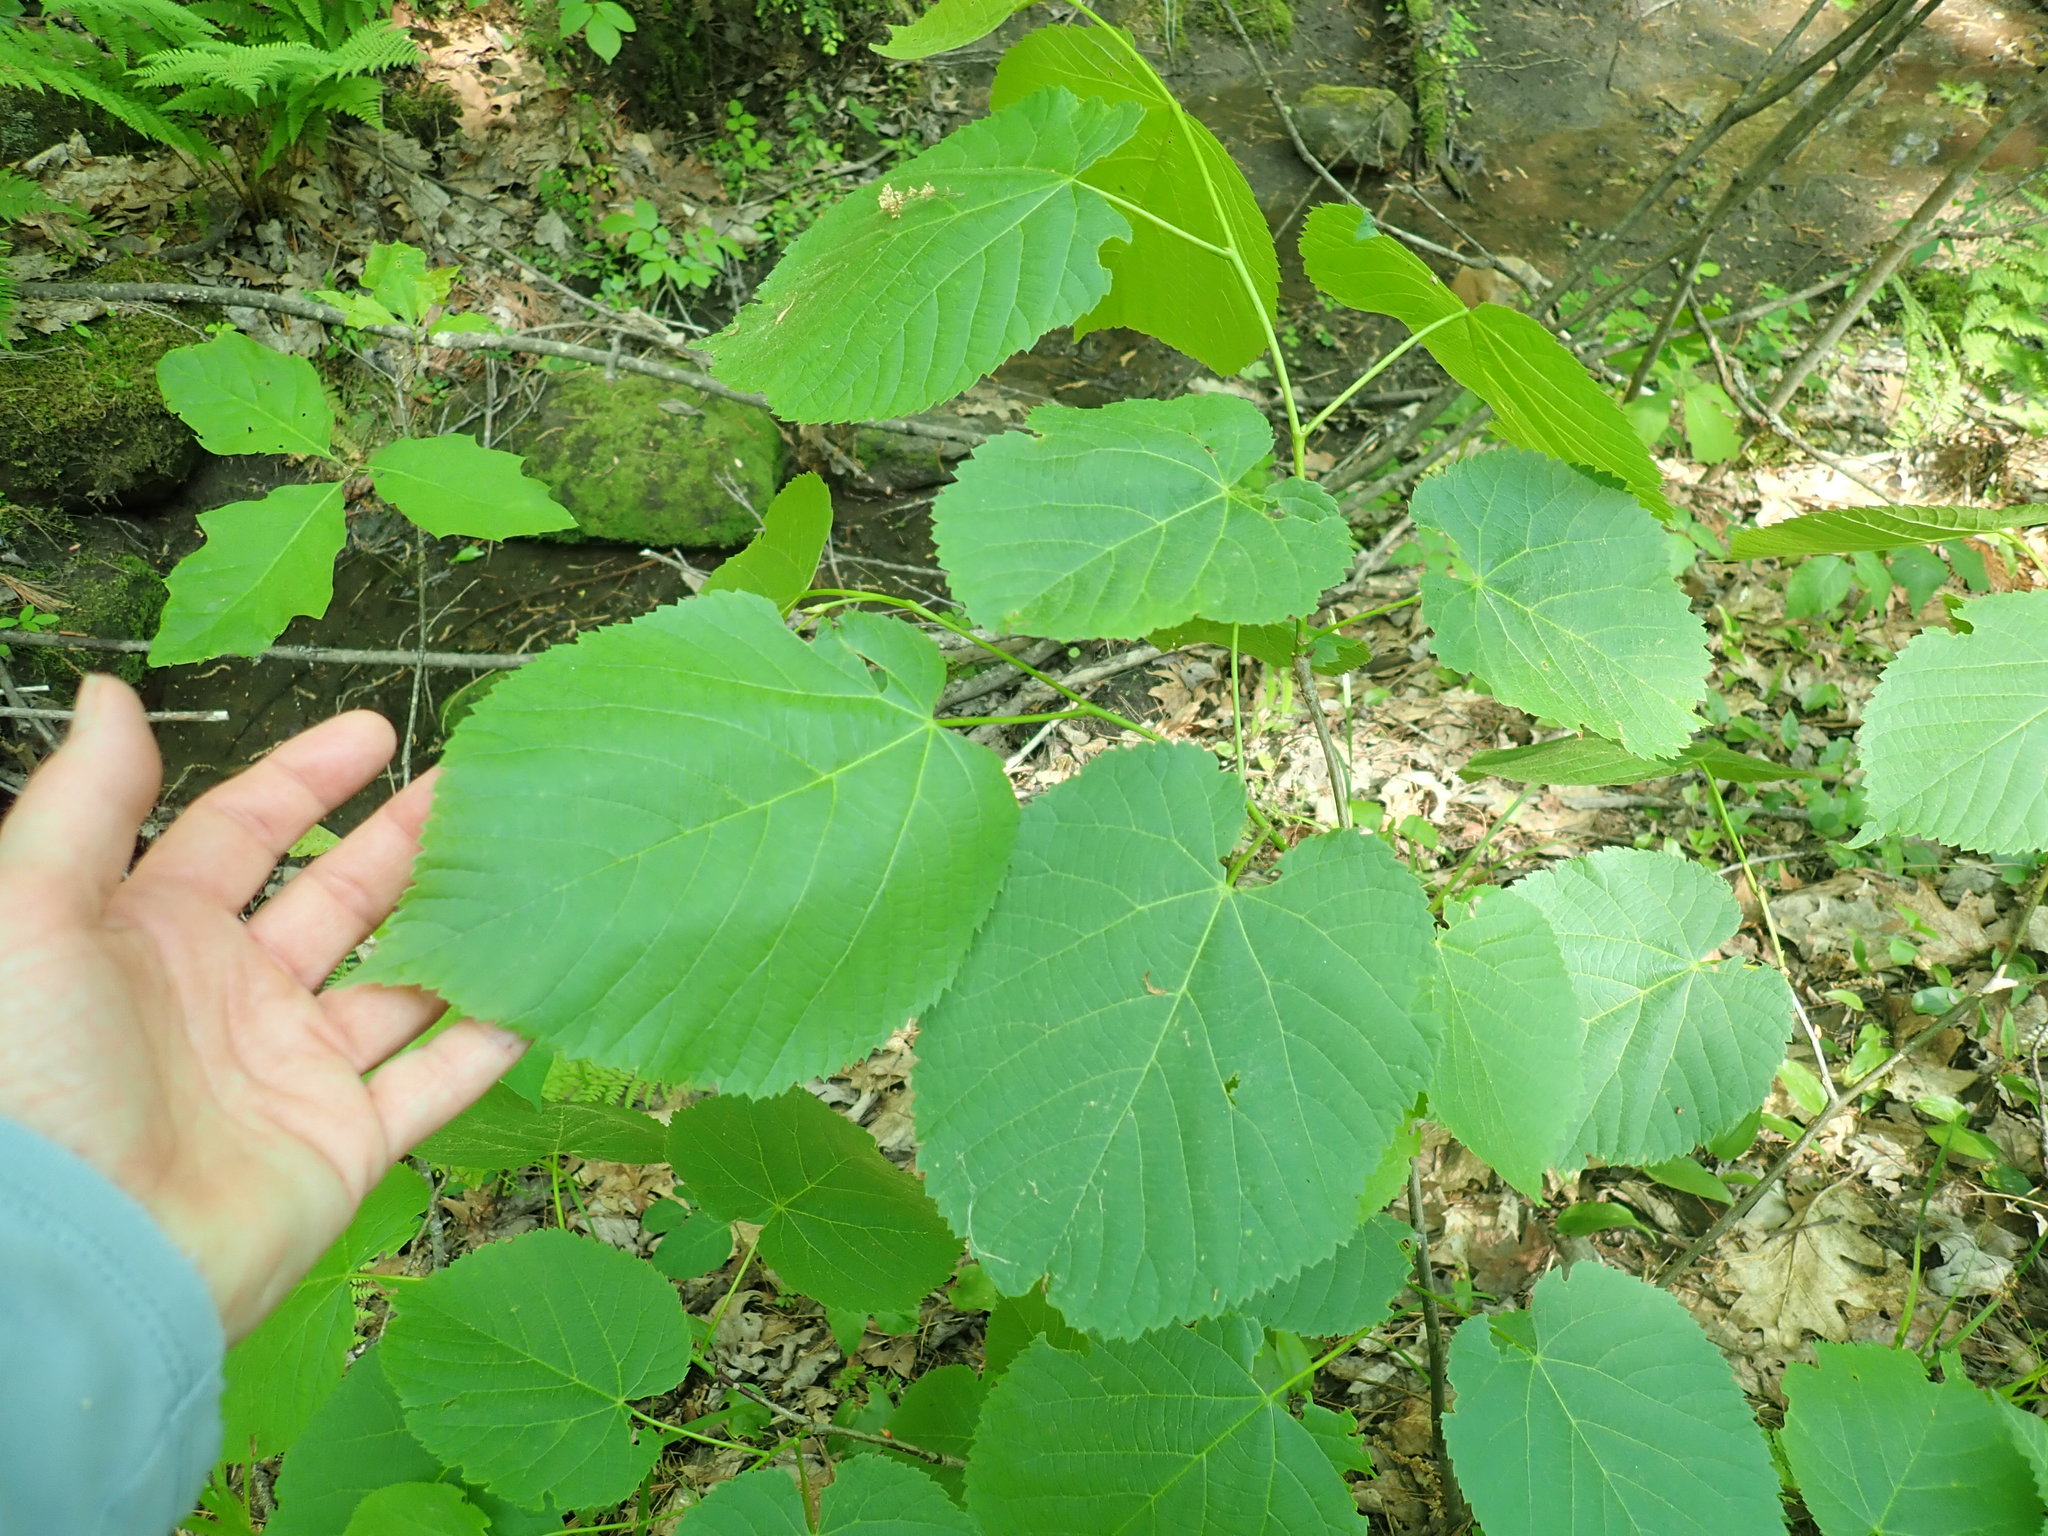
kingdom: Plantae
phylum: Tracheophyta
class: Magnoliopsida
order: Malvales
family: Malvaceae
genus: Tilia
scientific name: Tilia americana
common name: Basswood
